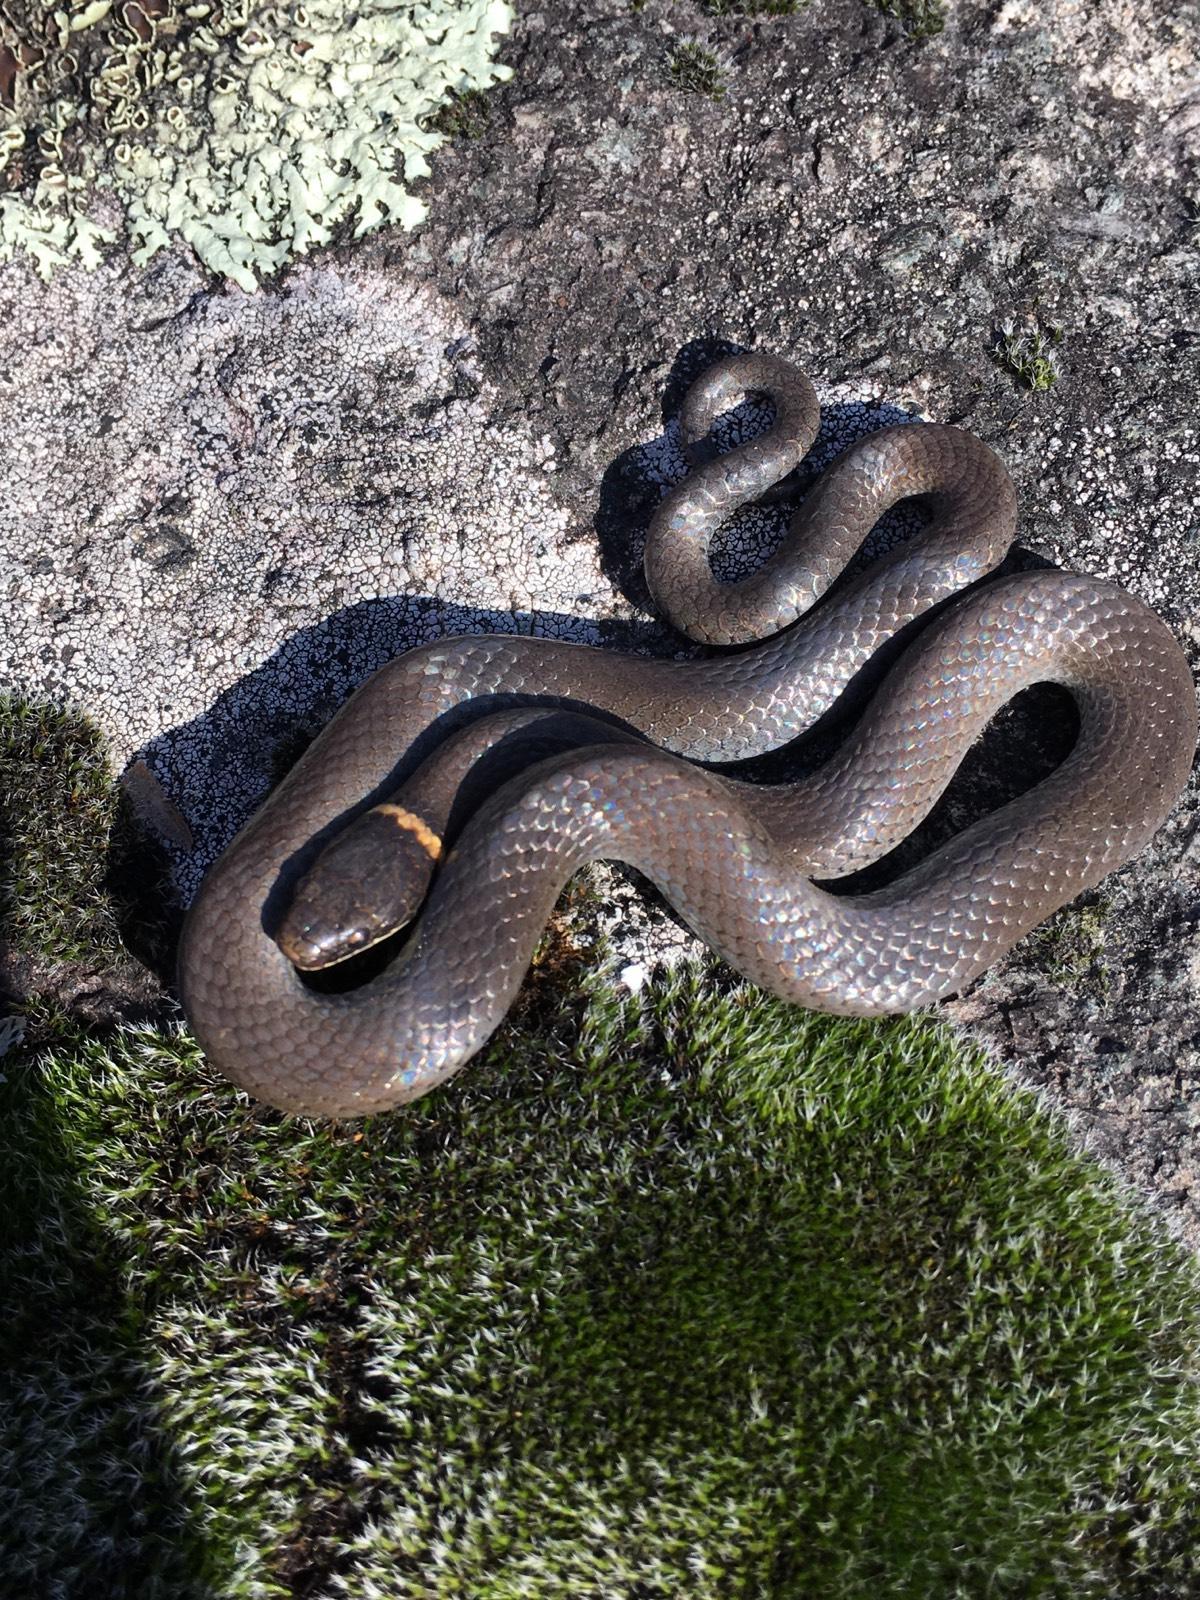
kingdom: Animalia
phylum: Chordata
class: Squamata
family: Colubridae
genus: Diadophis
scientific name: Diadophis punctatus
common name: Ringneck snake
